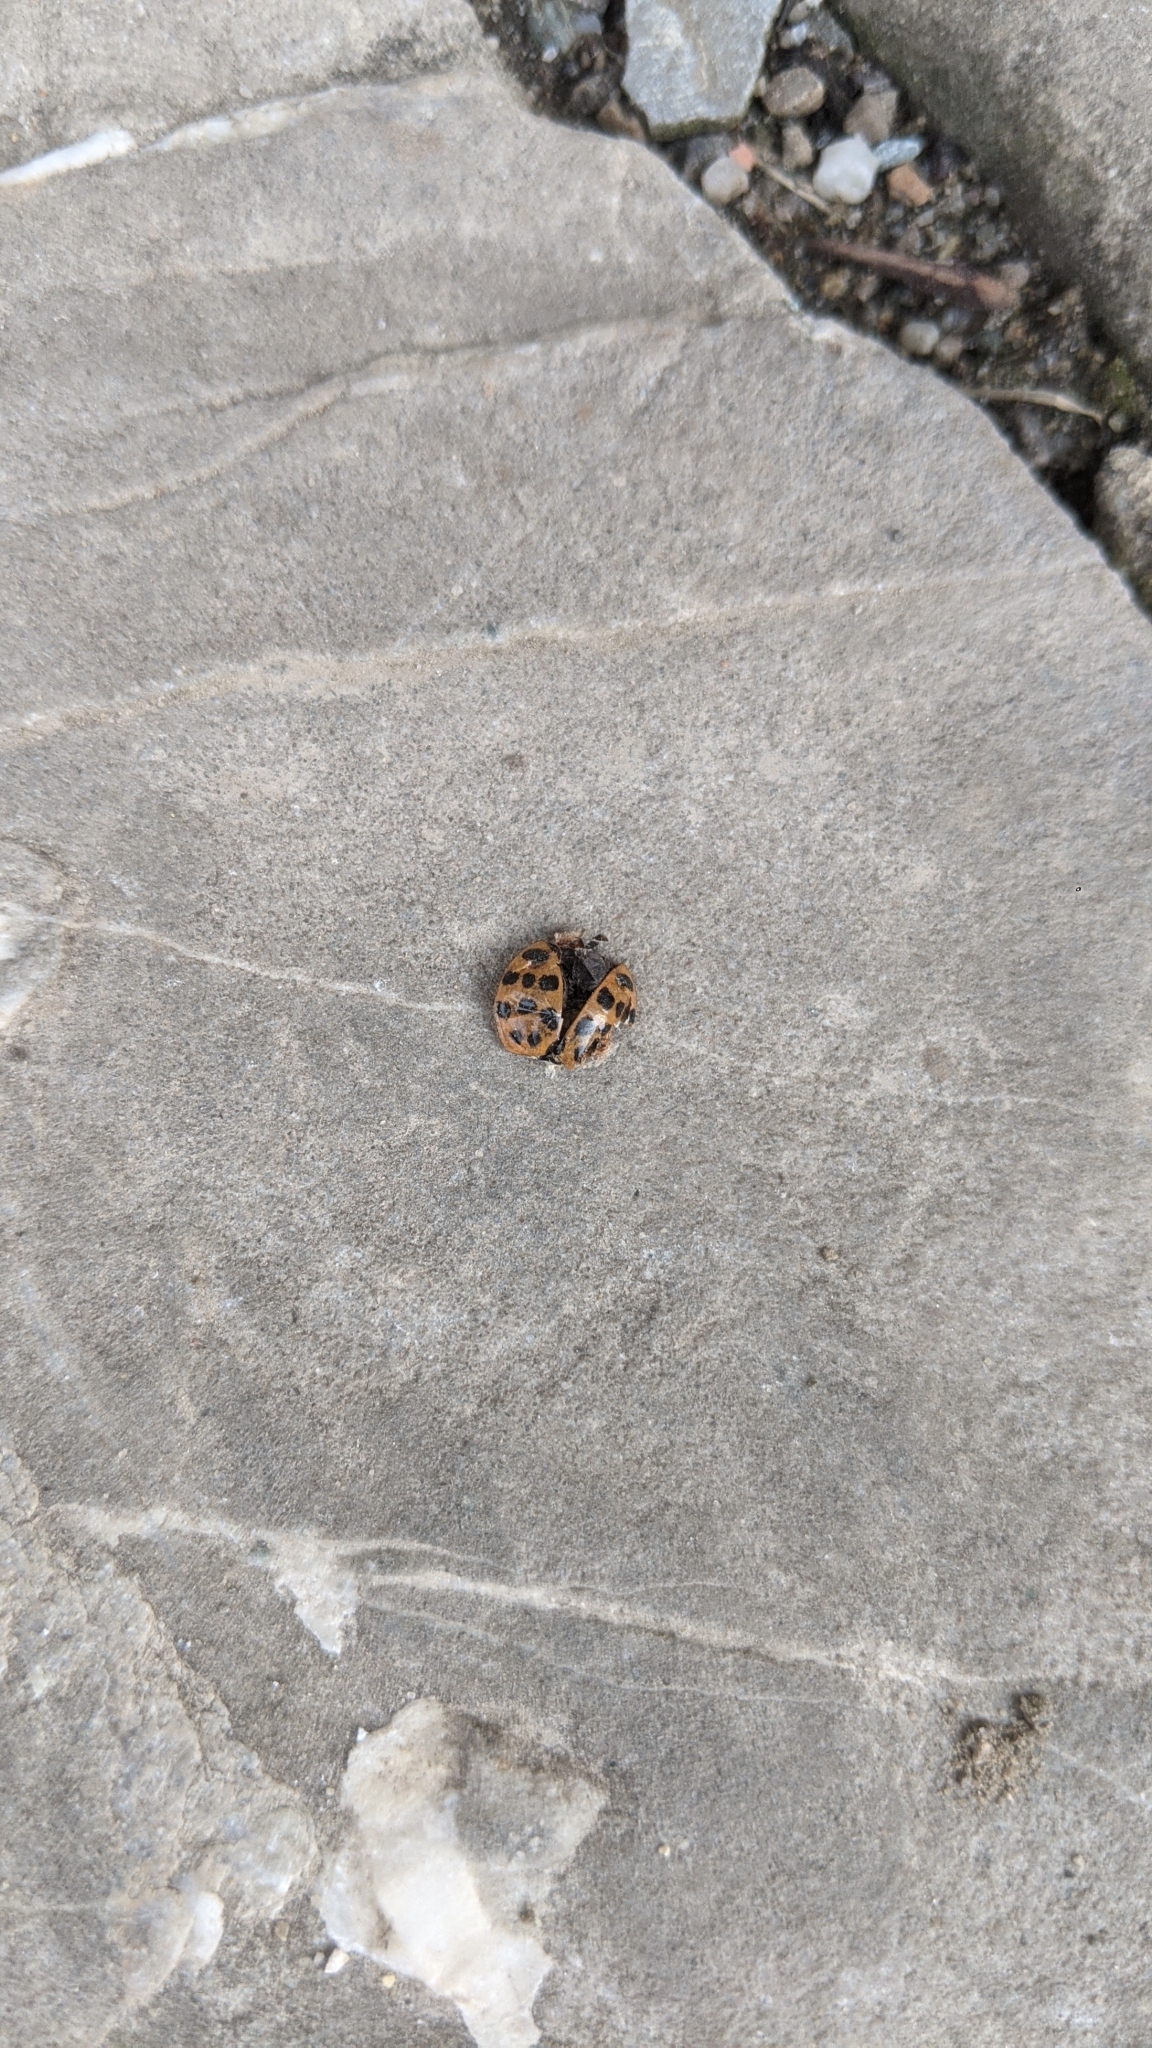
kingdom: Animalia
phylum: Arthropoda
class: Insecta
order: Coleoptera
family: Coccinellidae
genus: Harmonia
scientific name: Harmonia axyridis
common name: Harlequin ladybird
